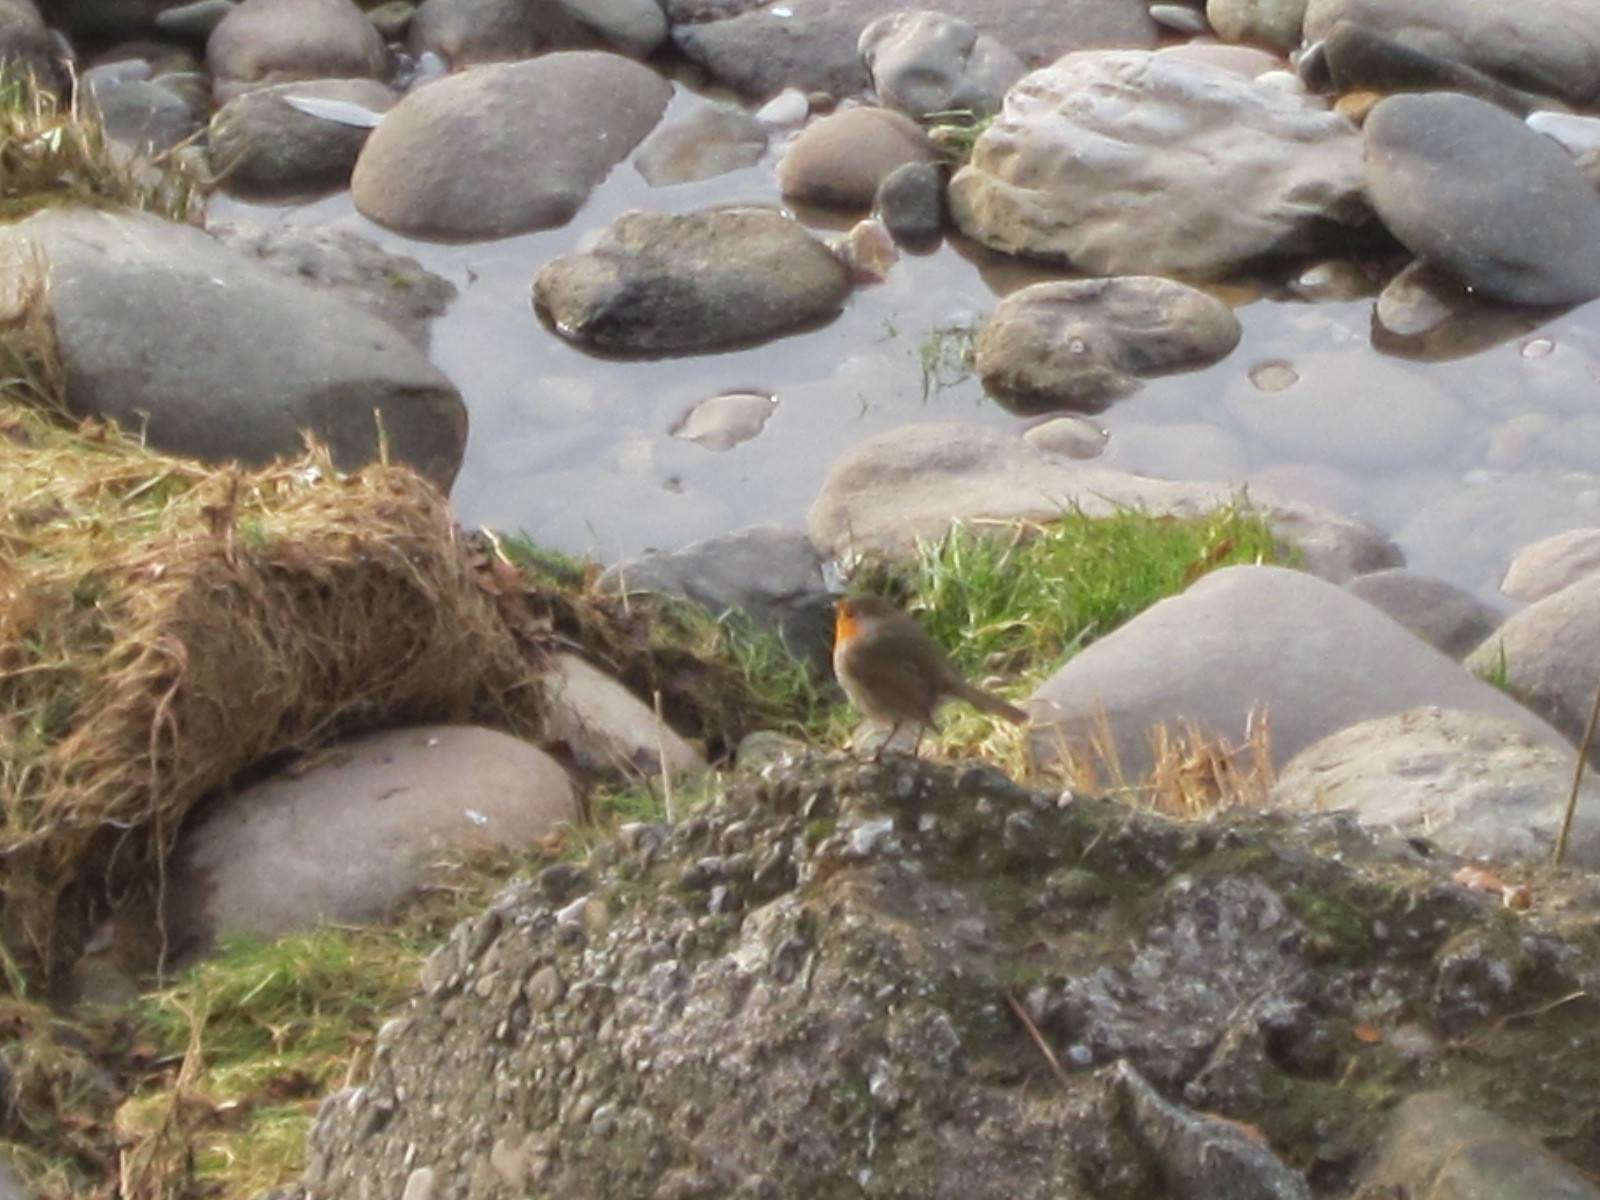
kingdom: Animalia
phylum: Chordata
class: Aves
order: Passeriformes
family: Muscicapidae
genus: Erithacus
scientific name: Erithacus rubecula
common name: European robin
